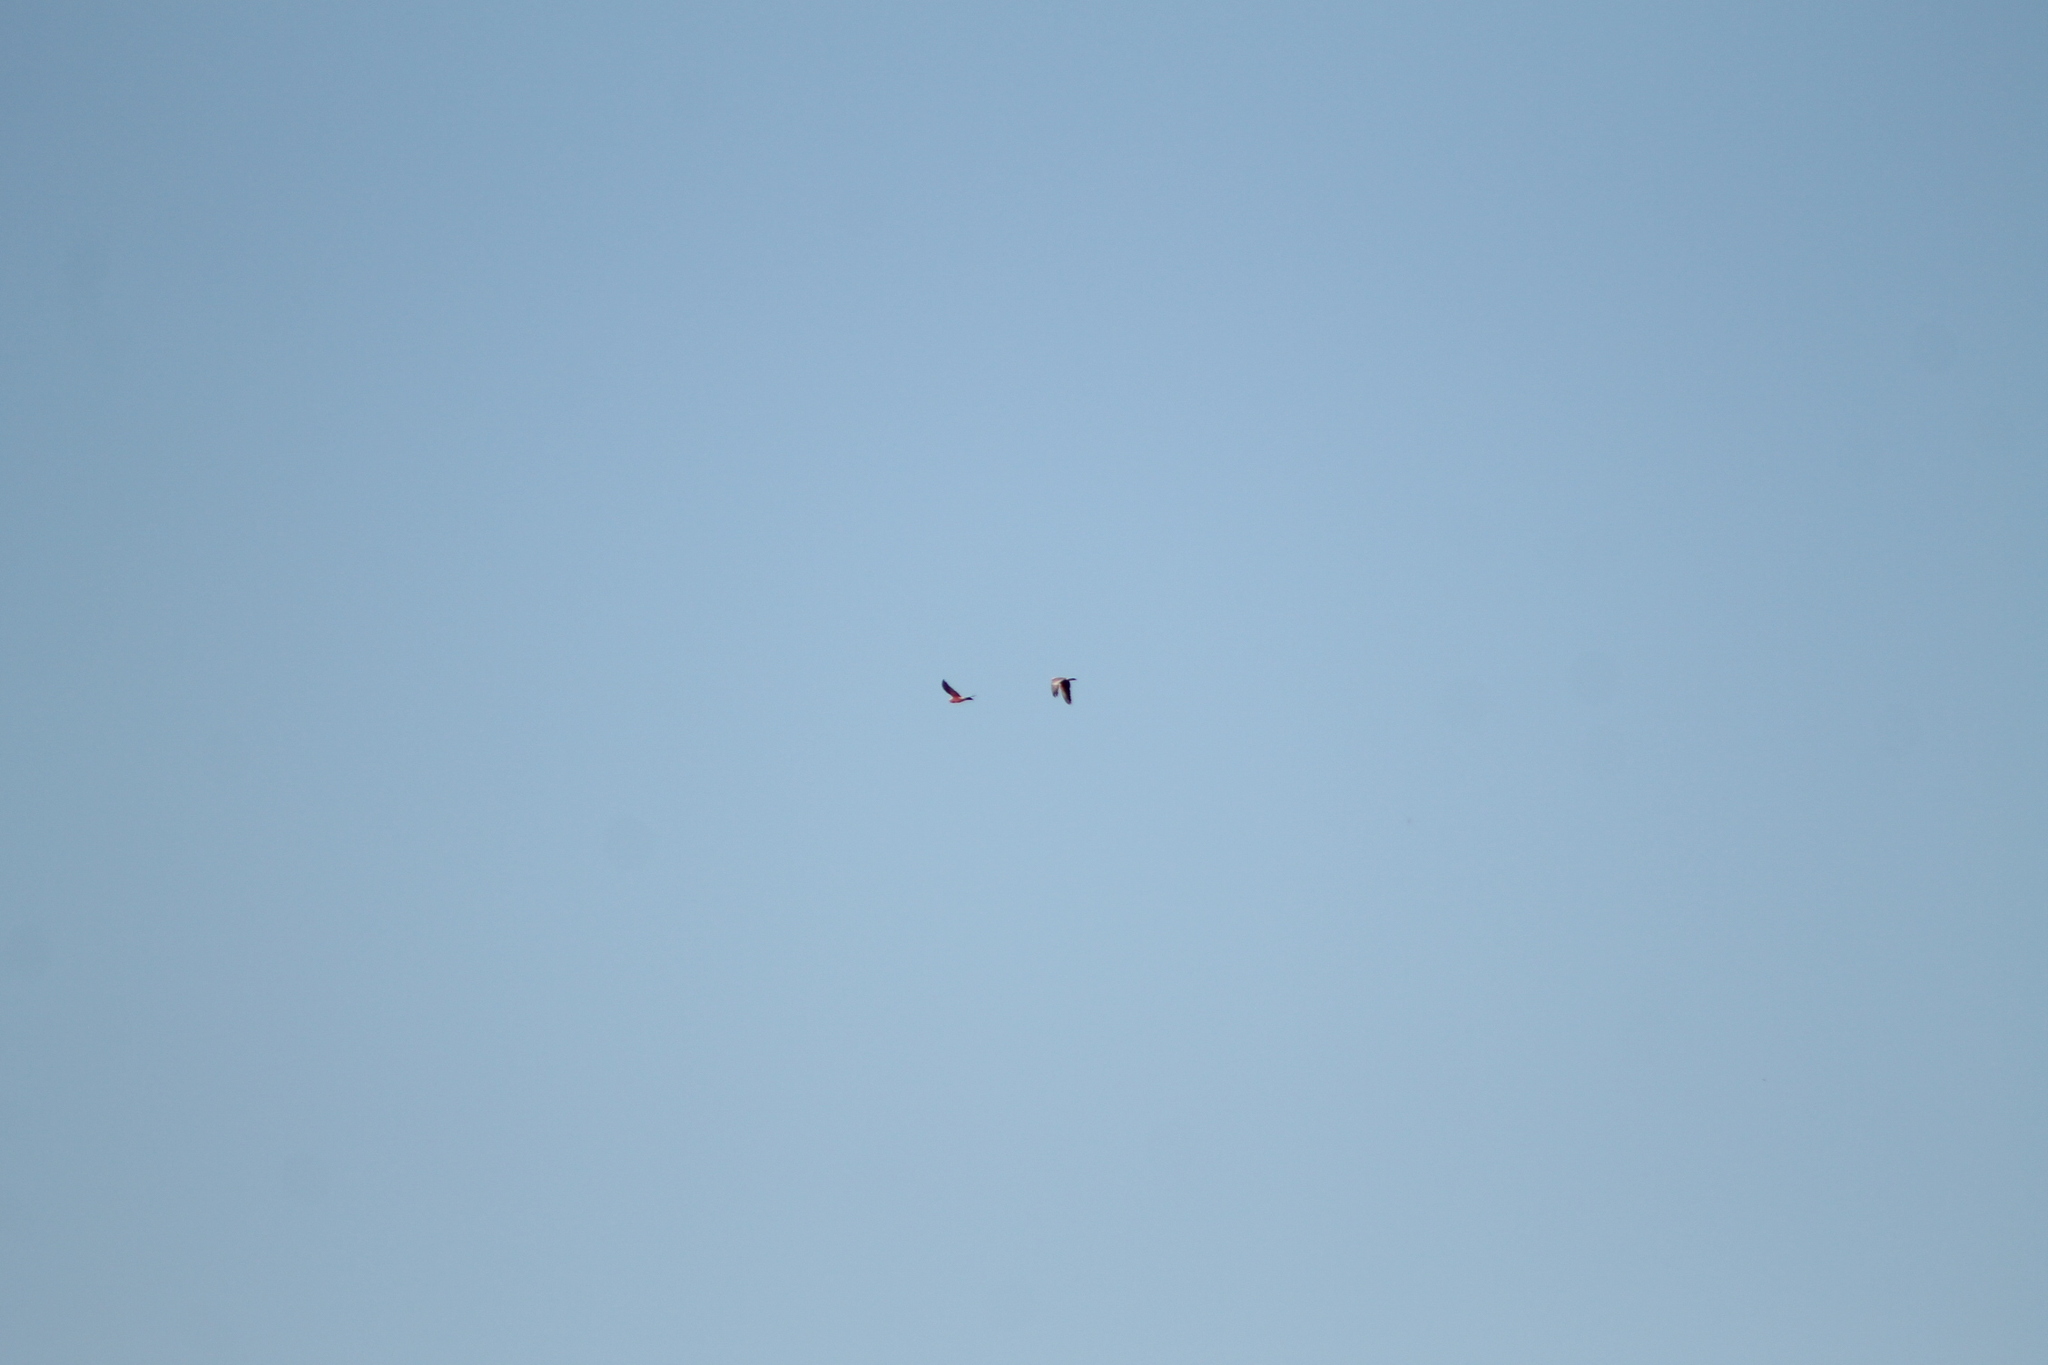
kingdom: Animalia
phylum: Chordata
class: Aves
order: Psittaciformes
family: Psittacidae
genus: Eolophus
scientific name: Eolophus roseicapilla
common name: Galah
